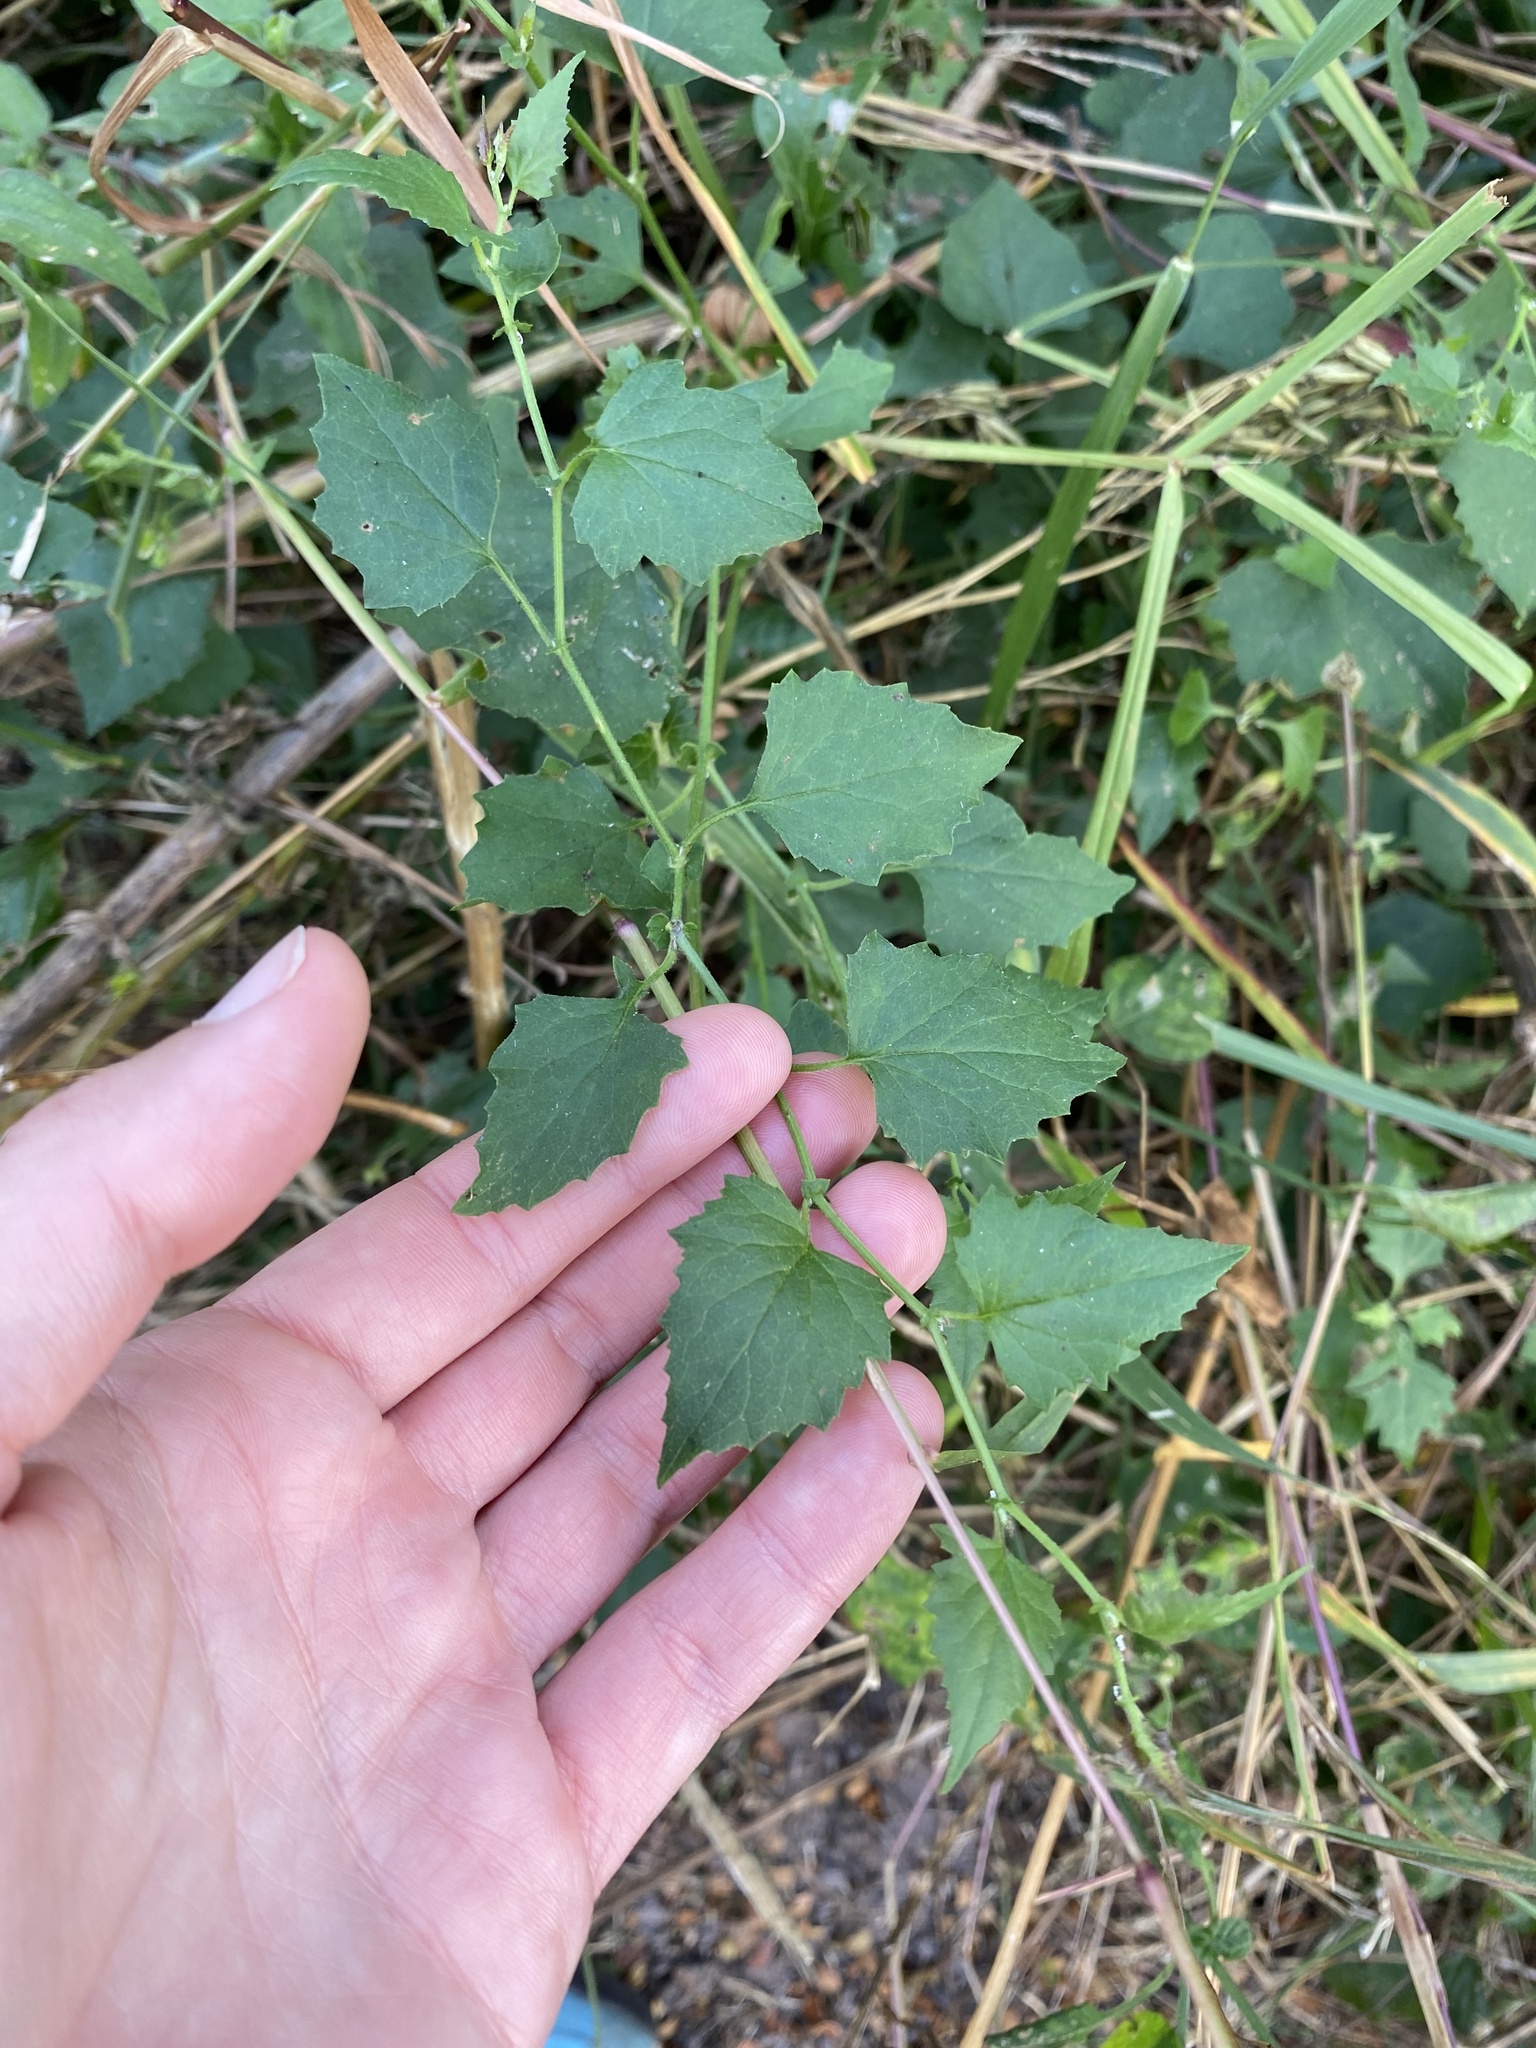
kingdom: Plantae
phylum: Tracheophyta
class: Magnoliopsida
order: Asterales
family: Asteraceae
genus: Senecio
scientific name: Senecio deltoideus
